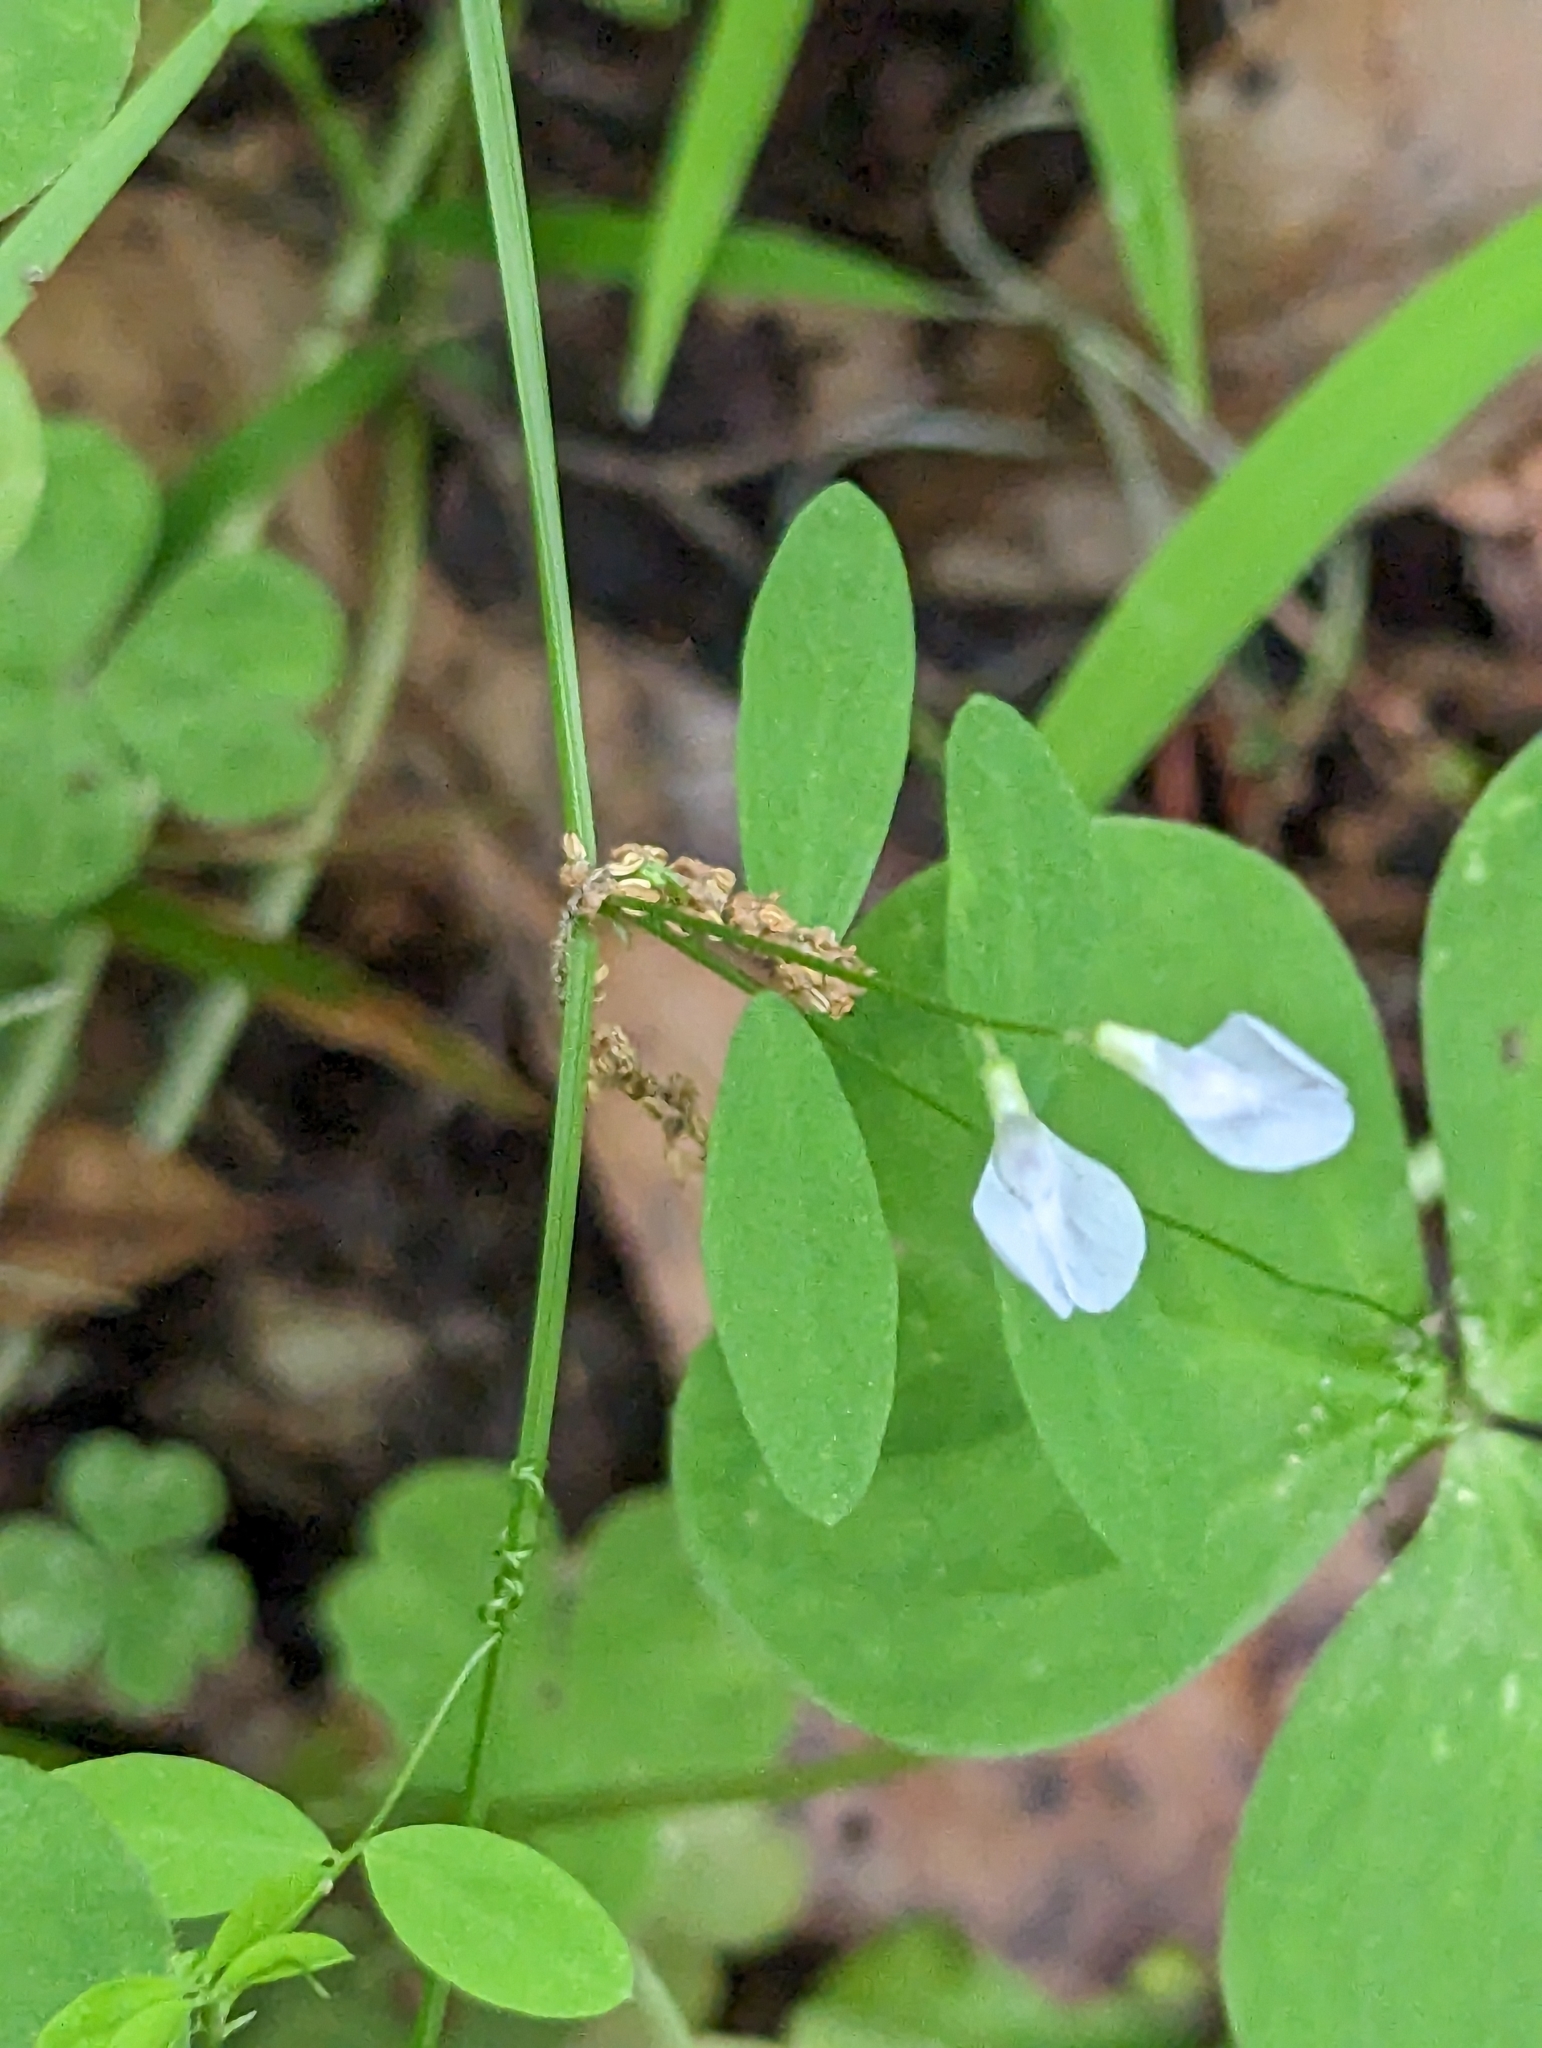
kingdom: Plantae
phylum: Tracheophyta
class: Magnoliopsida
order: Fabales
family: Fabaceae
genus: Vicia
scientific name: Vicia floridana
